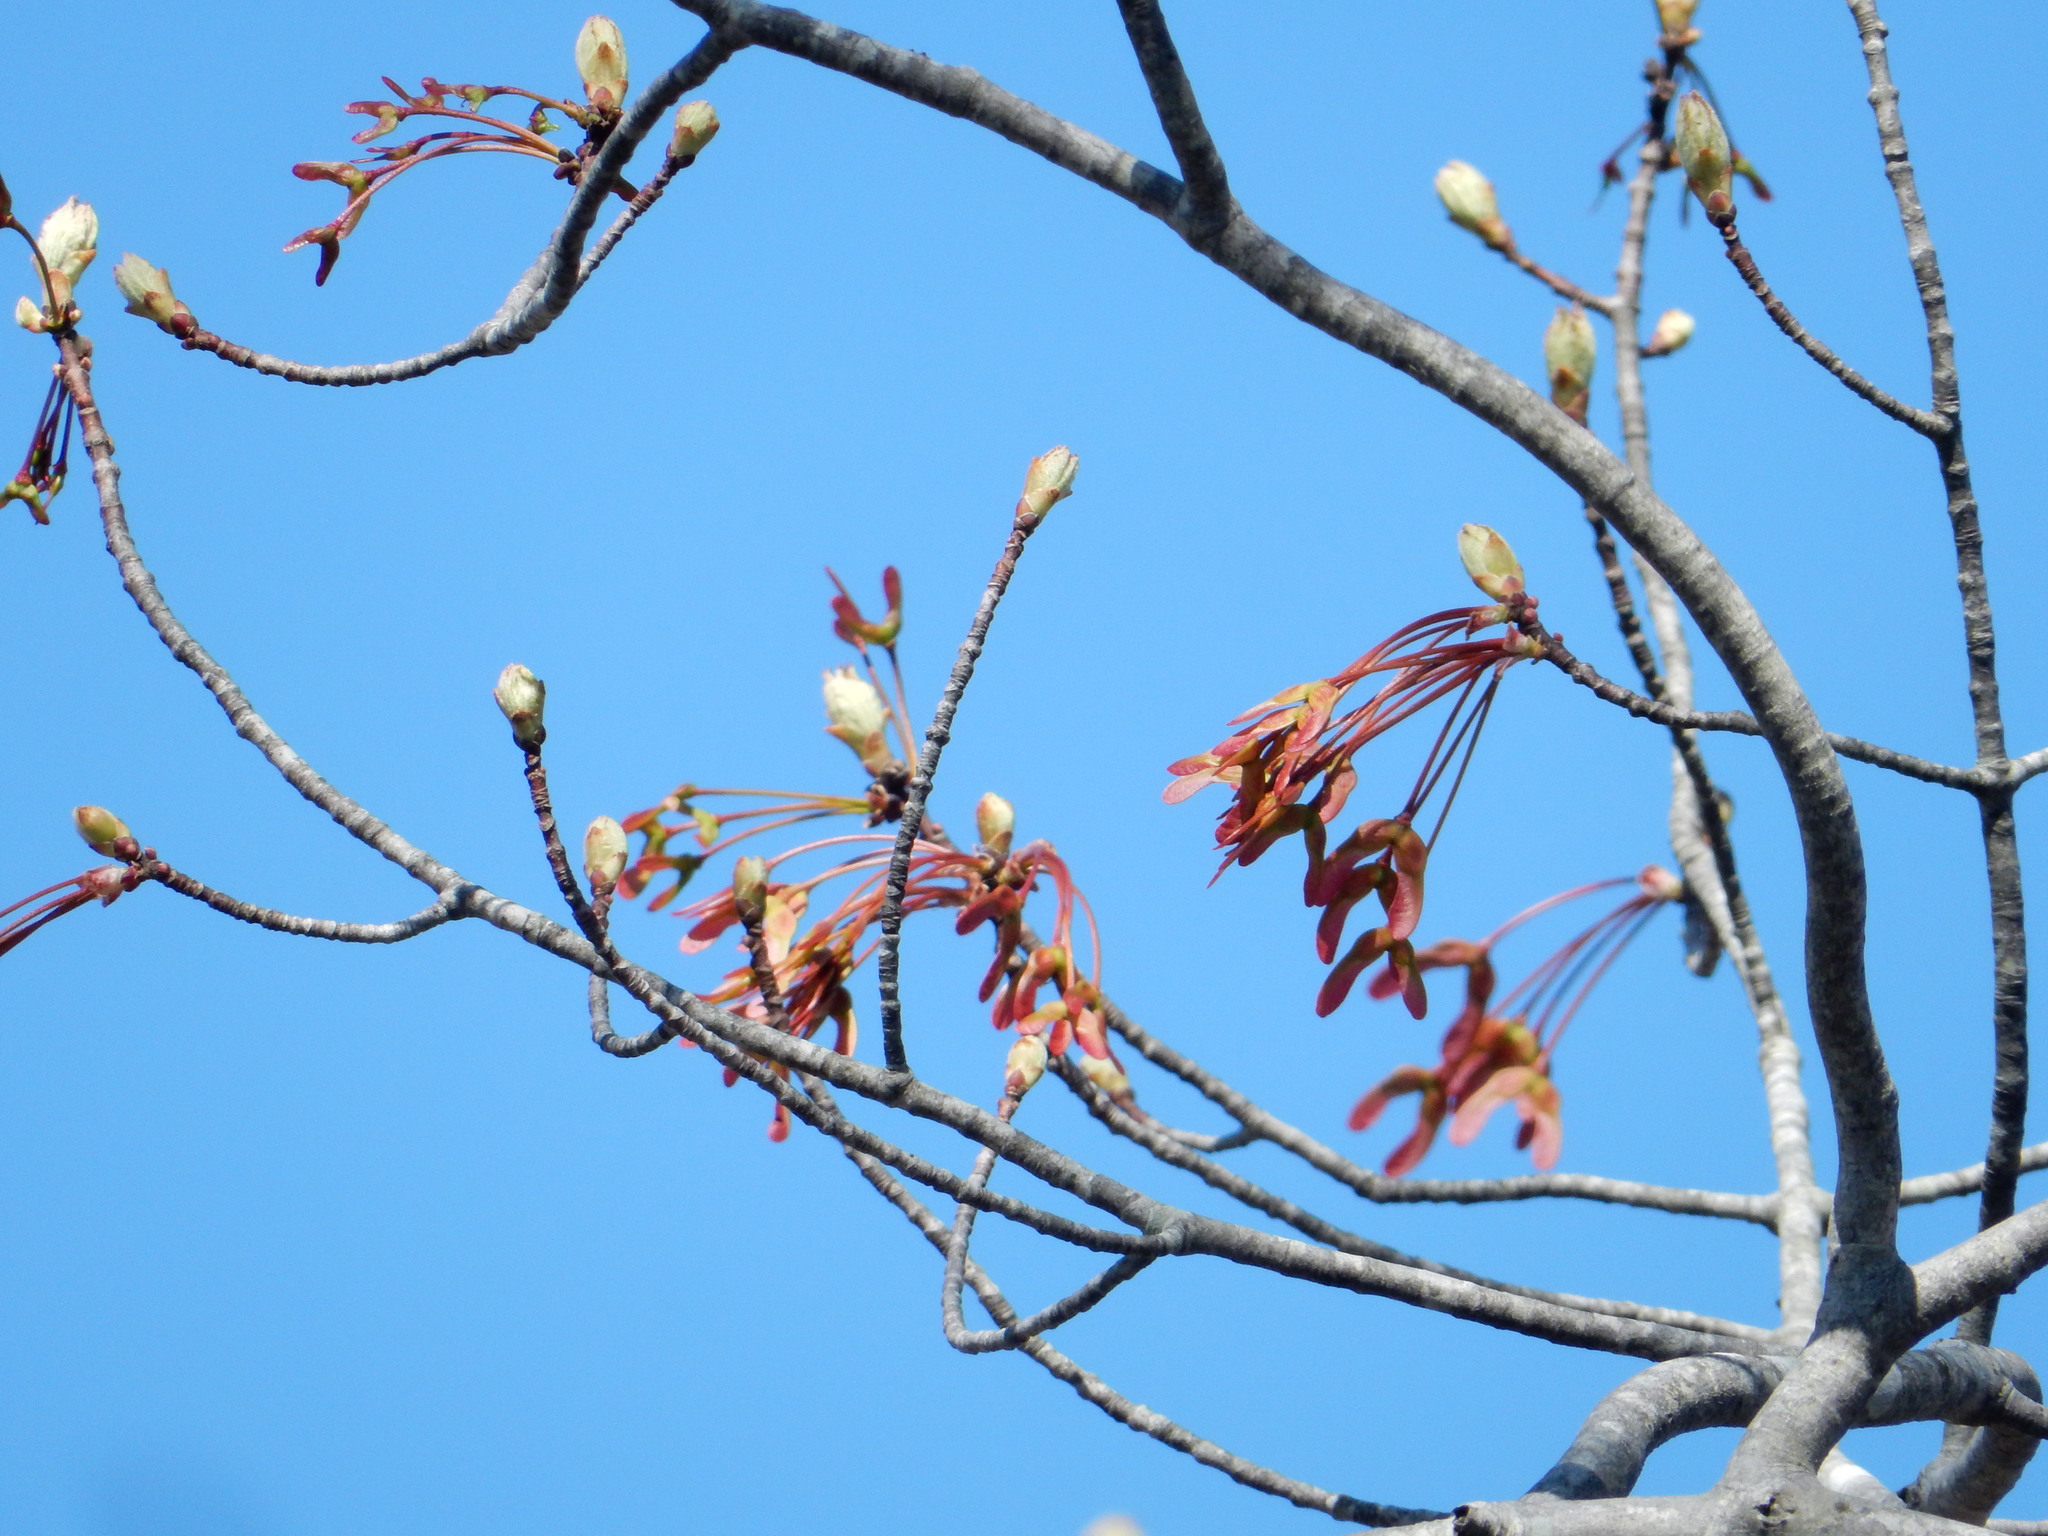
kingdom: Plantae
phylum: Tracheophyta
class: Magnoliopsida
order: Sapindales
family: Sapindaceae
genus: Acer
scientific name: Acer rubrum
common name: Red maple
